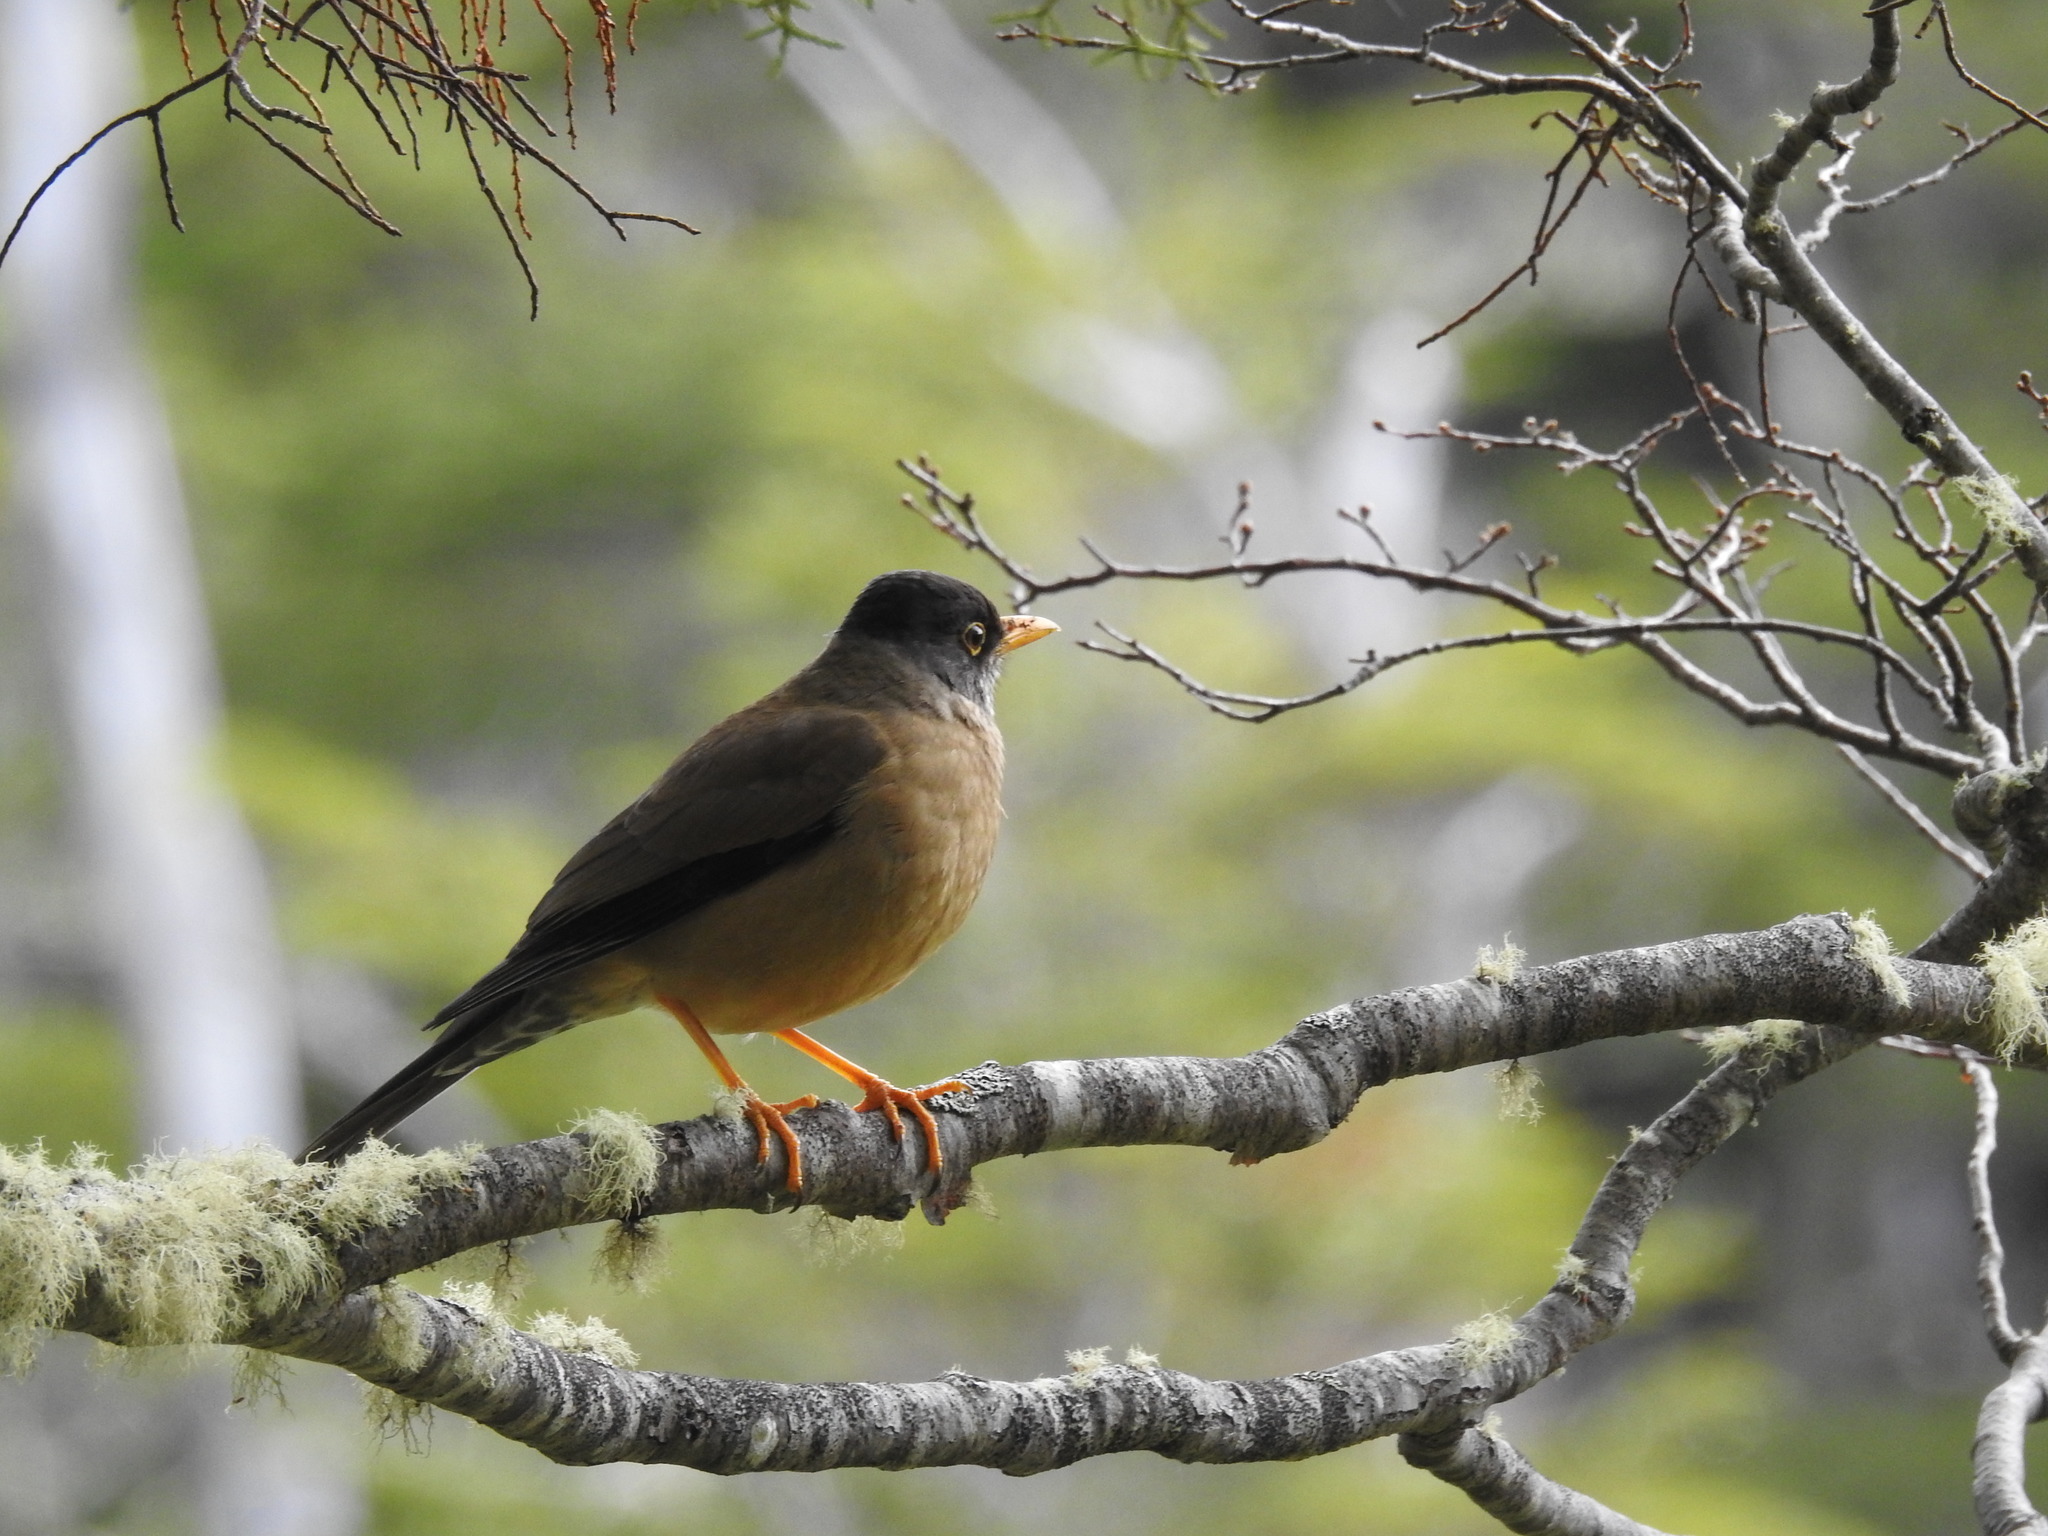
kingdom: Animalia
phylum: Chordata
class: Aves
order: Passeriformes
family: Turdidae
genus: Turdus
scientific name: Turdus falcklandii
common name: Austral thrush
